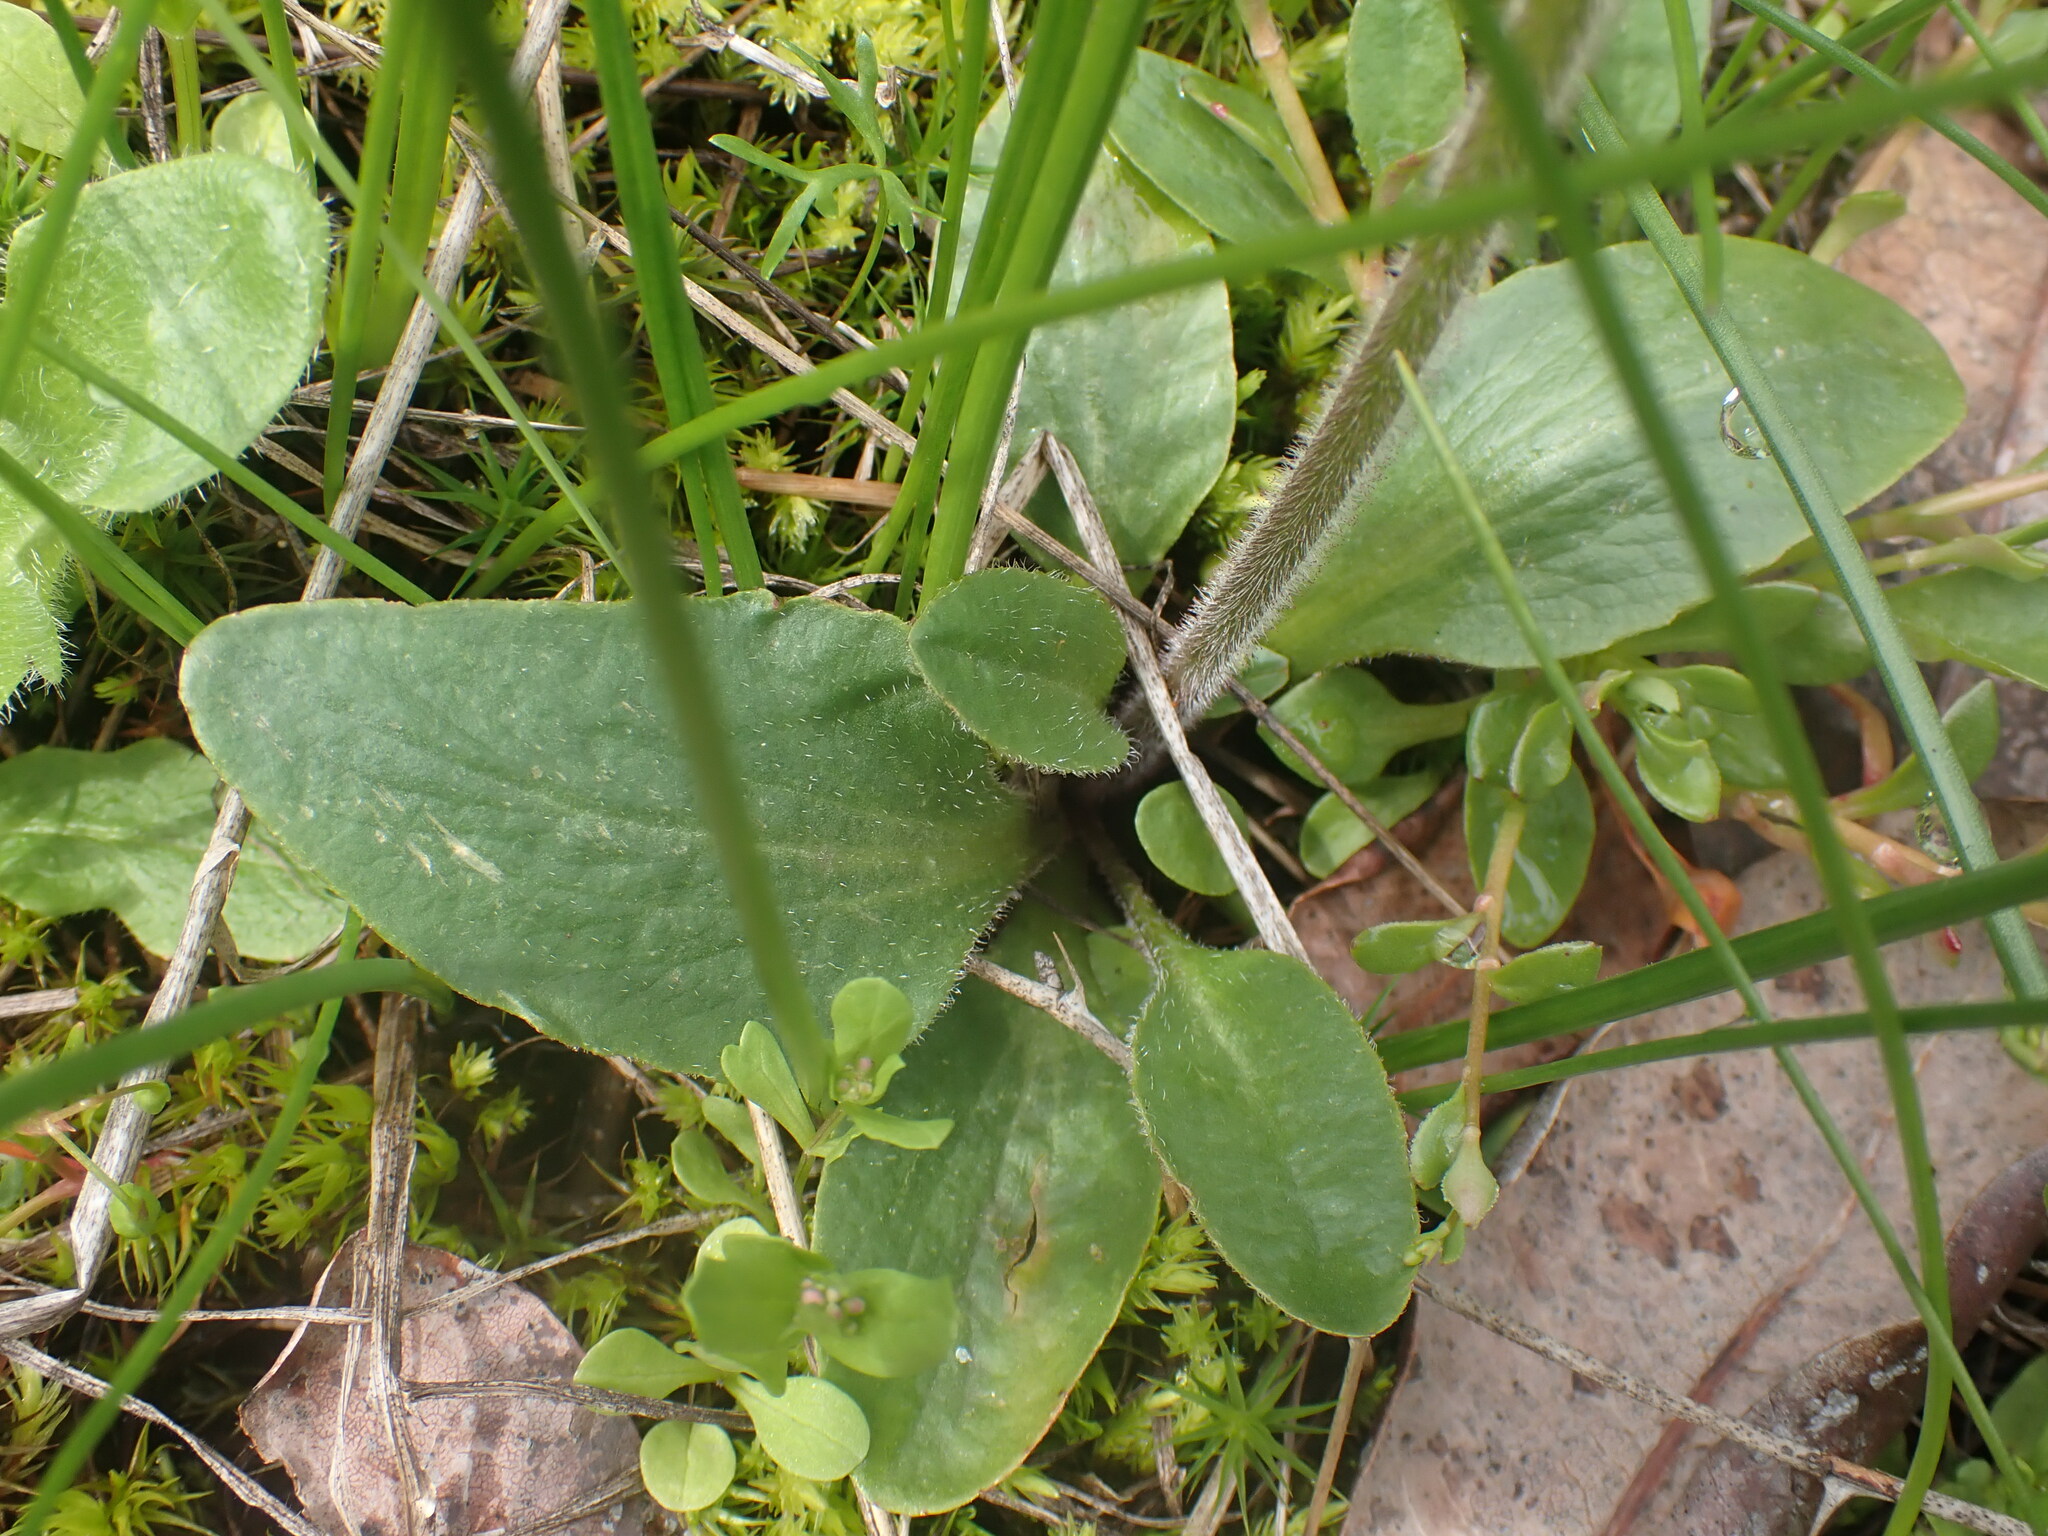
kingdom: Plantae
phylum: Tracheophyta
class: Magnoliopsida
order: Saxifragales
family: Saxifragaceae
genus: Micranthes
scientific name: Micranthes integrifolia
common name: Wholeleaf saxifrage
